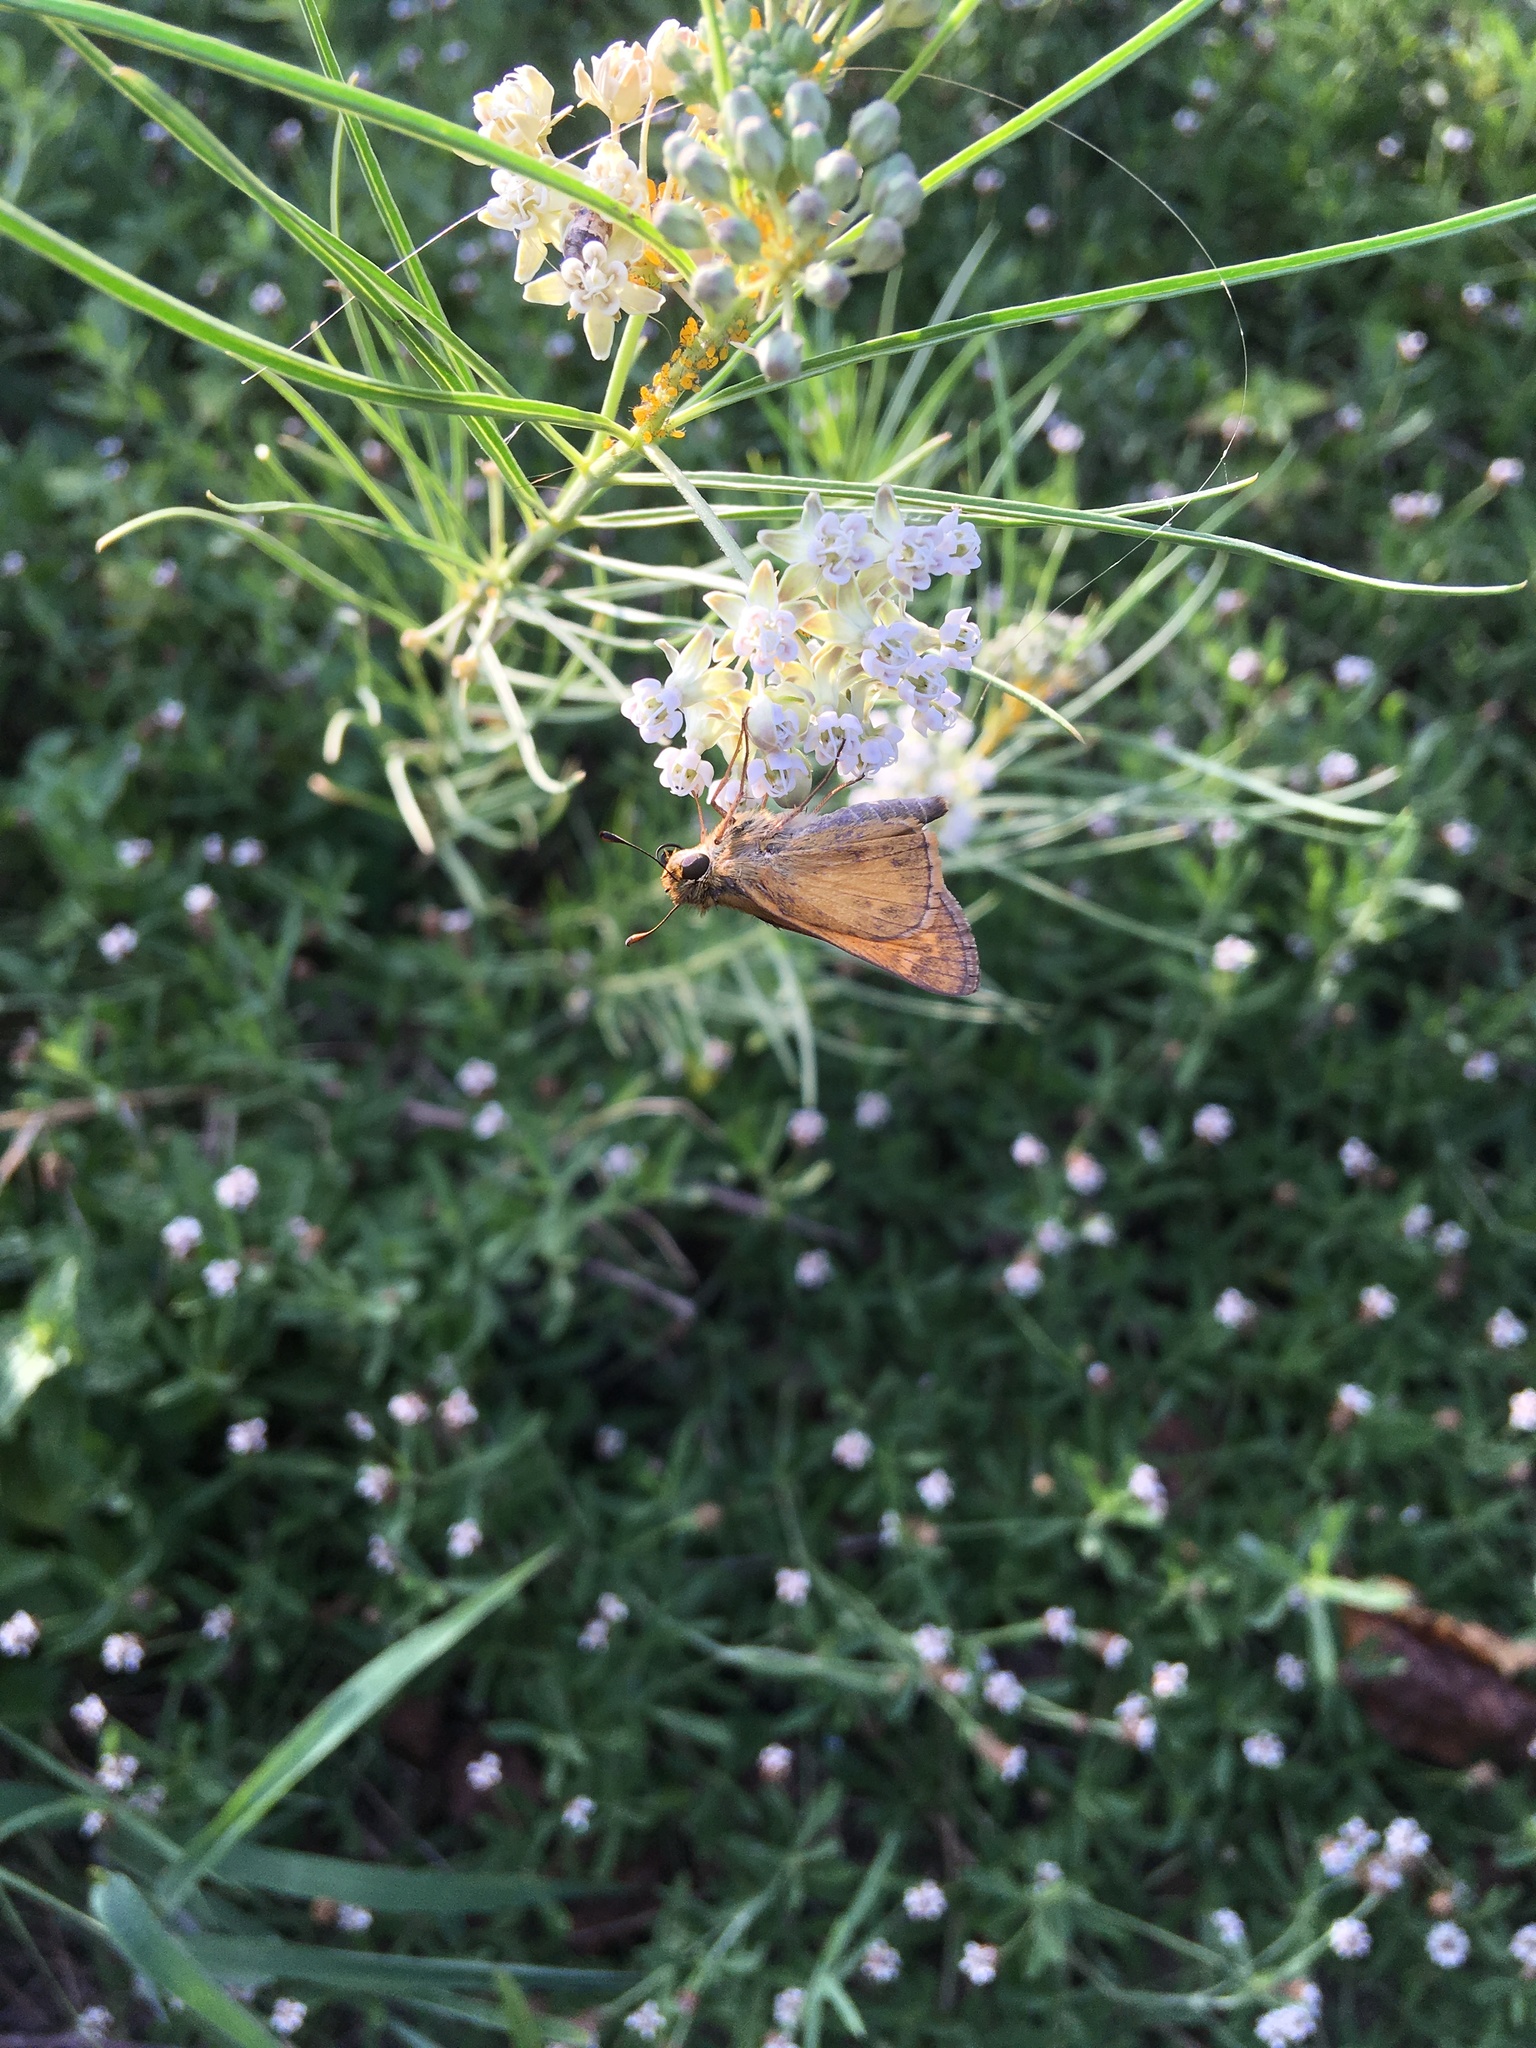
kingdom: Animalia
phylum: Arthropoda
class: Insecta
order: Lepidoptera
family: Hesperiidae
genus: Atalopedes
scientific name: Atalopedes
